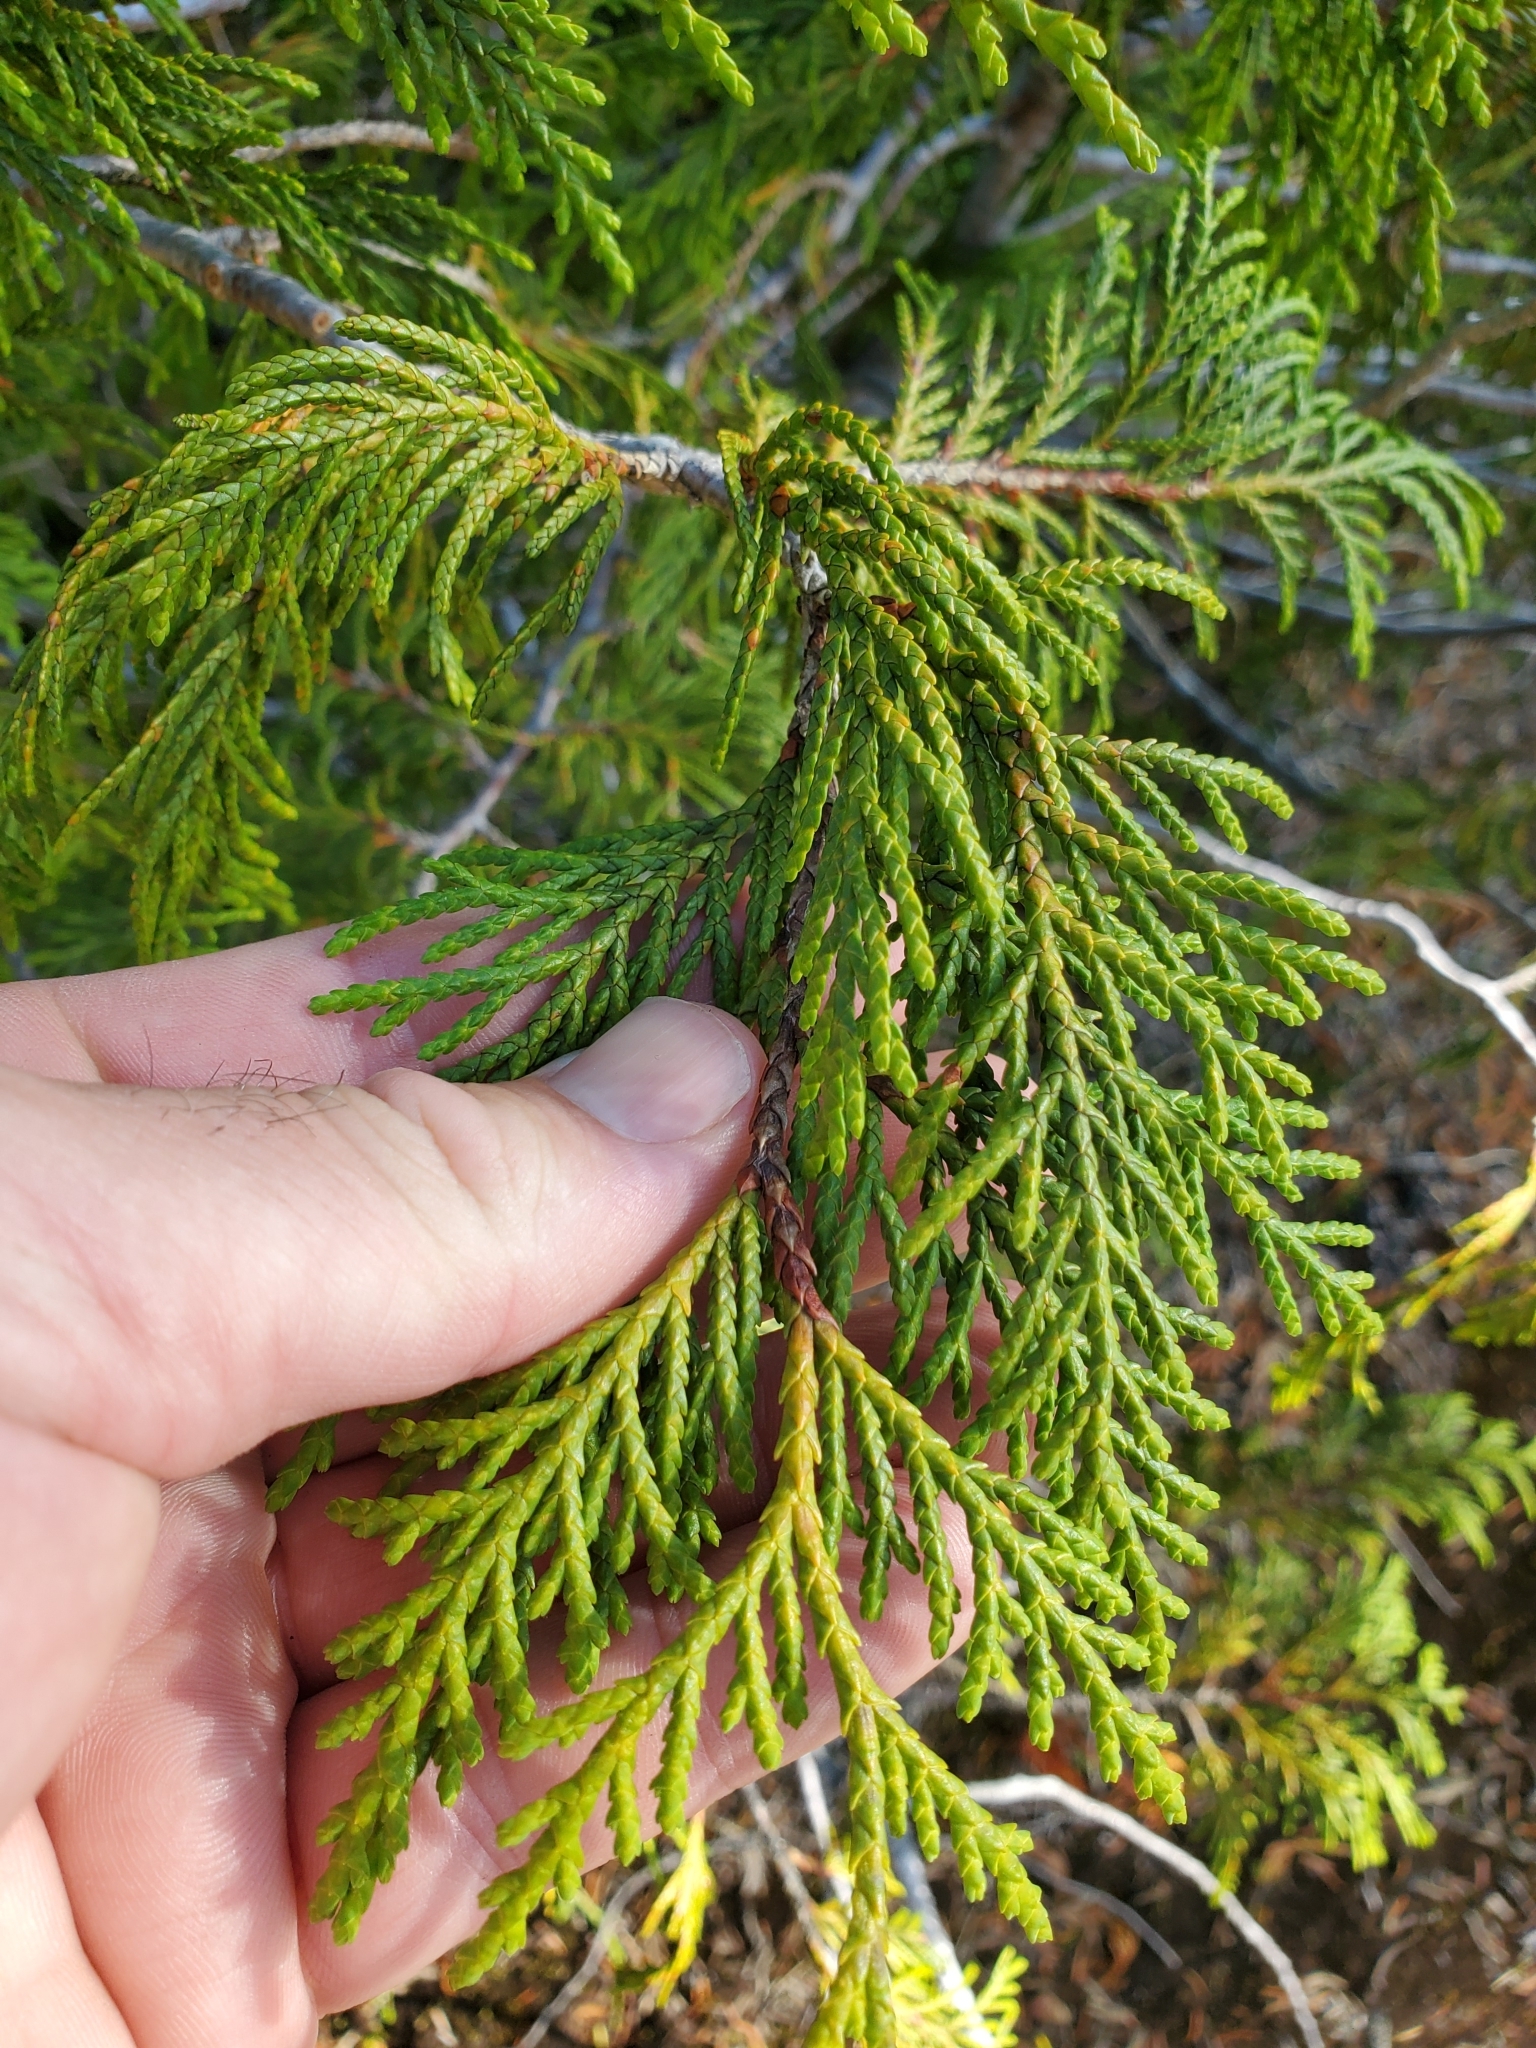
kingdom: Plantae
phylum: Tracheophyta
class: Pinopsida
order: Pinales
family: Cupressaceae
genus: Xanthocyparis
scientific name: Xanthocyparis nootkatensis
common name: Nootka cypress
